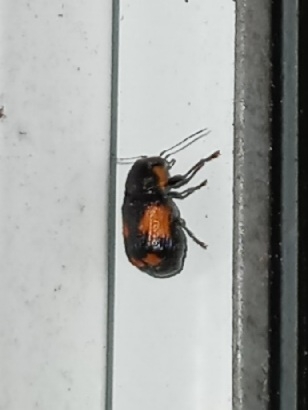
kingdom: Animalia
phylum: Arthropoda
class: Insecta
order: Coleoptera
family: Chrysomelidae
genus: Pachybrachis
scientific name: Pachybrachis subfasciatus
